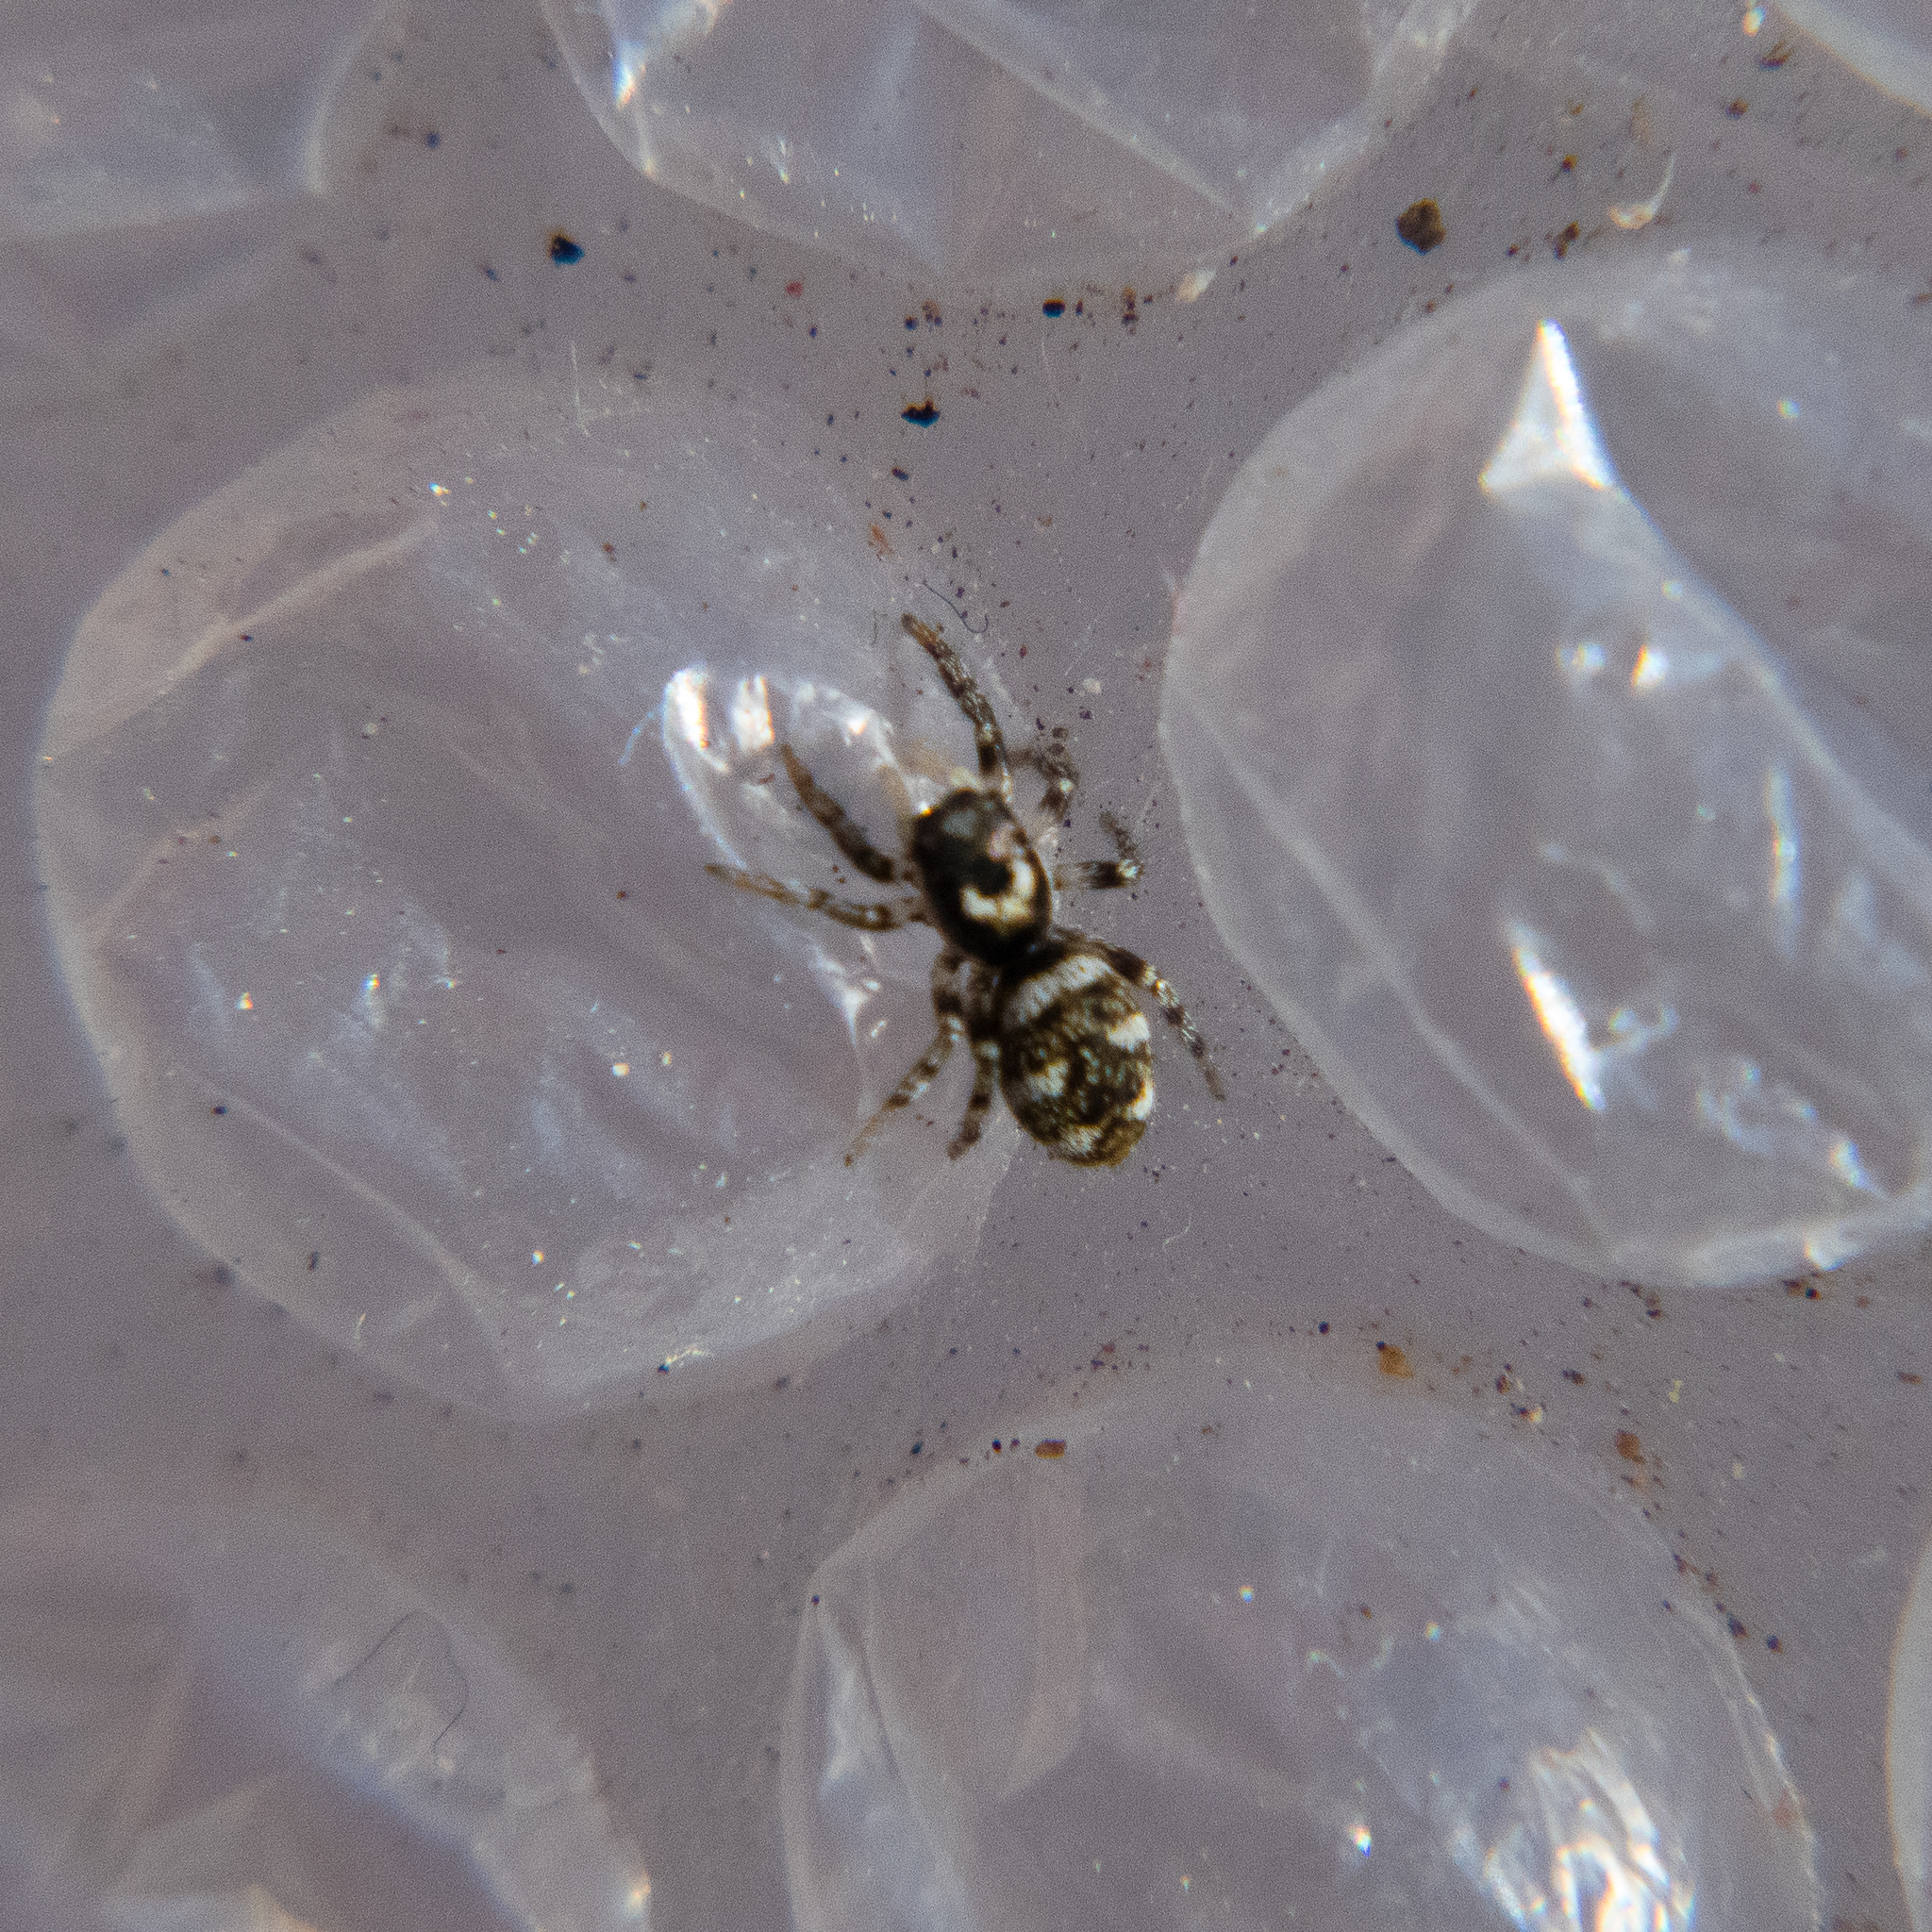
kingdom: Animalia
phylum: Arthropoda
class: Arachnida
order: Araneae
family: Salticidae
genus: Salticus
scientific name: Salticus scenicus
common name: Zebra jumper
